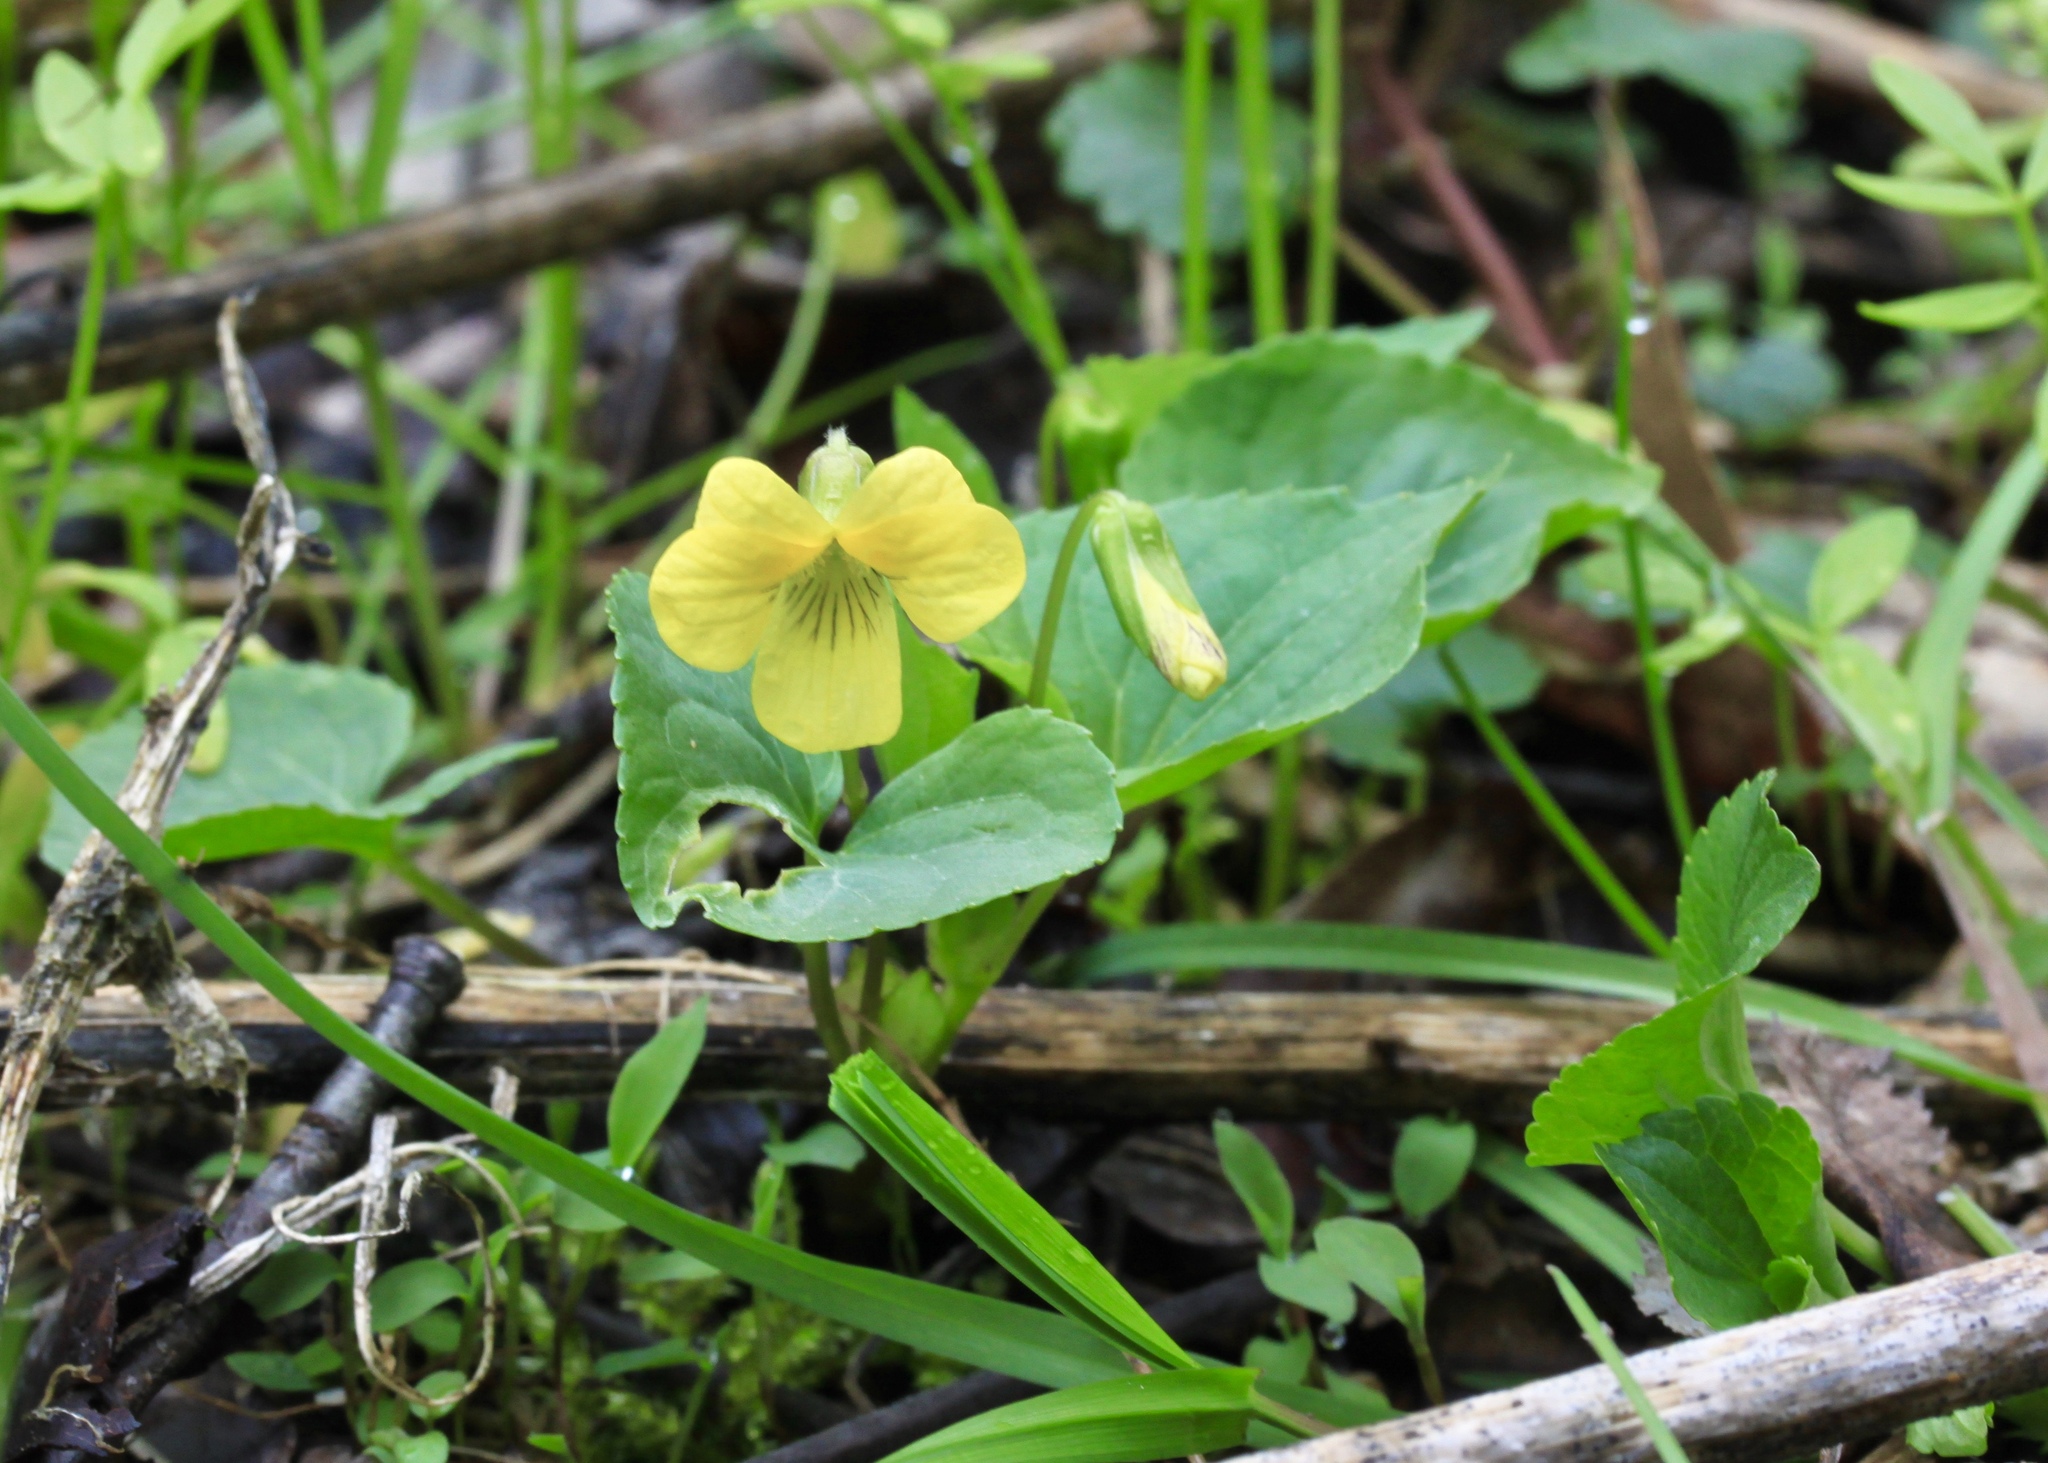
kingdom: Plantae
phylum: Tracheophyta
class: Magnoliopsida
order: Malpighiales
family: Violaceae
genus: Viola
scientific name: Viola eriocarpa
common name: Smooth yellow violet
